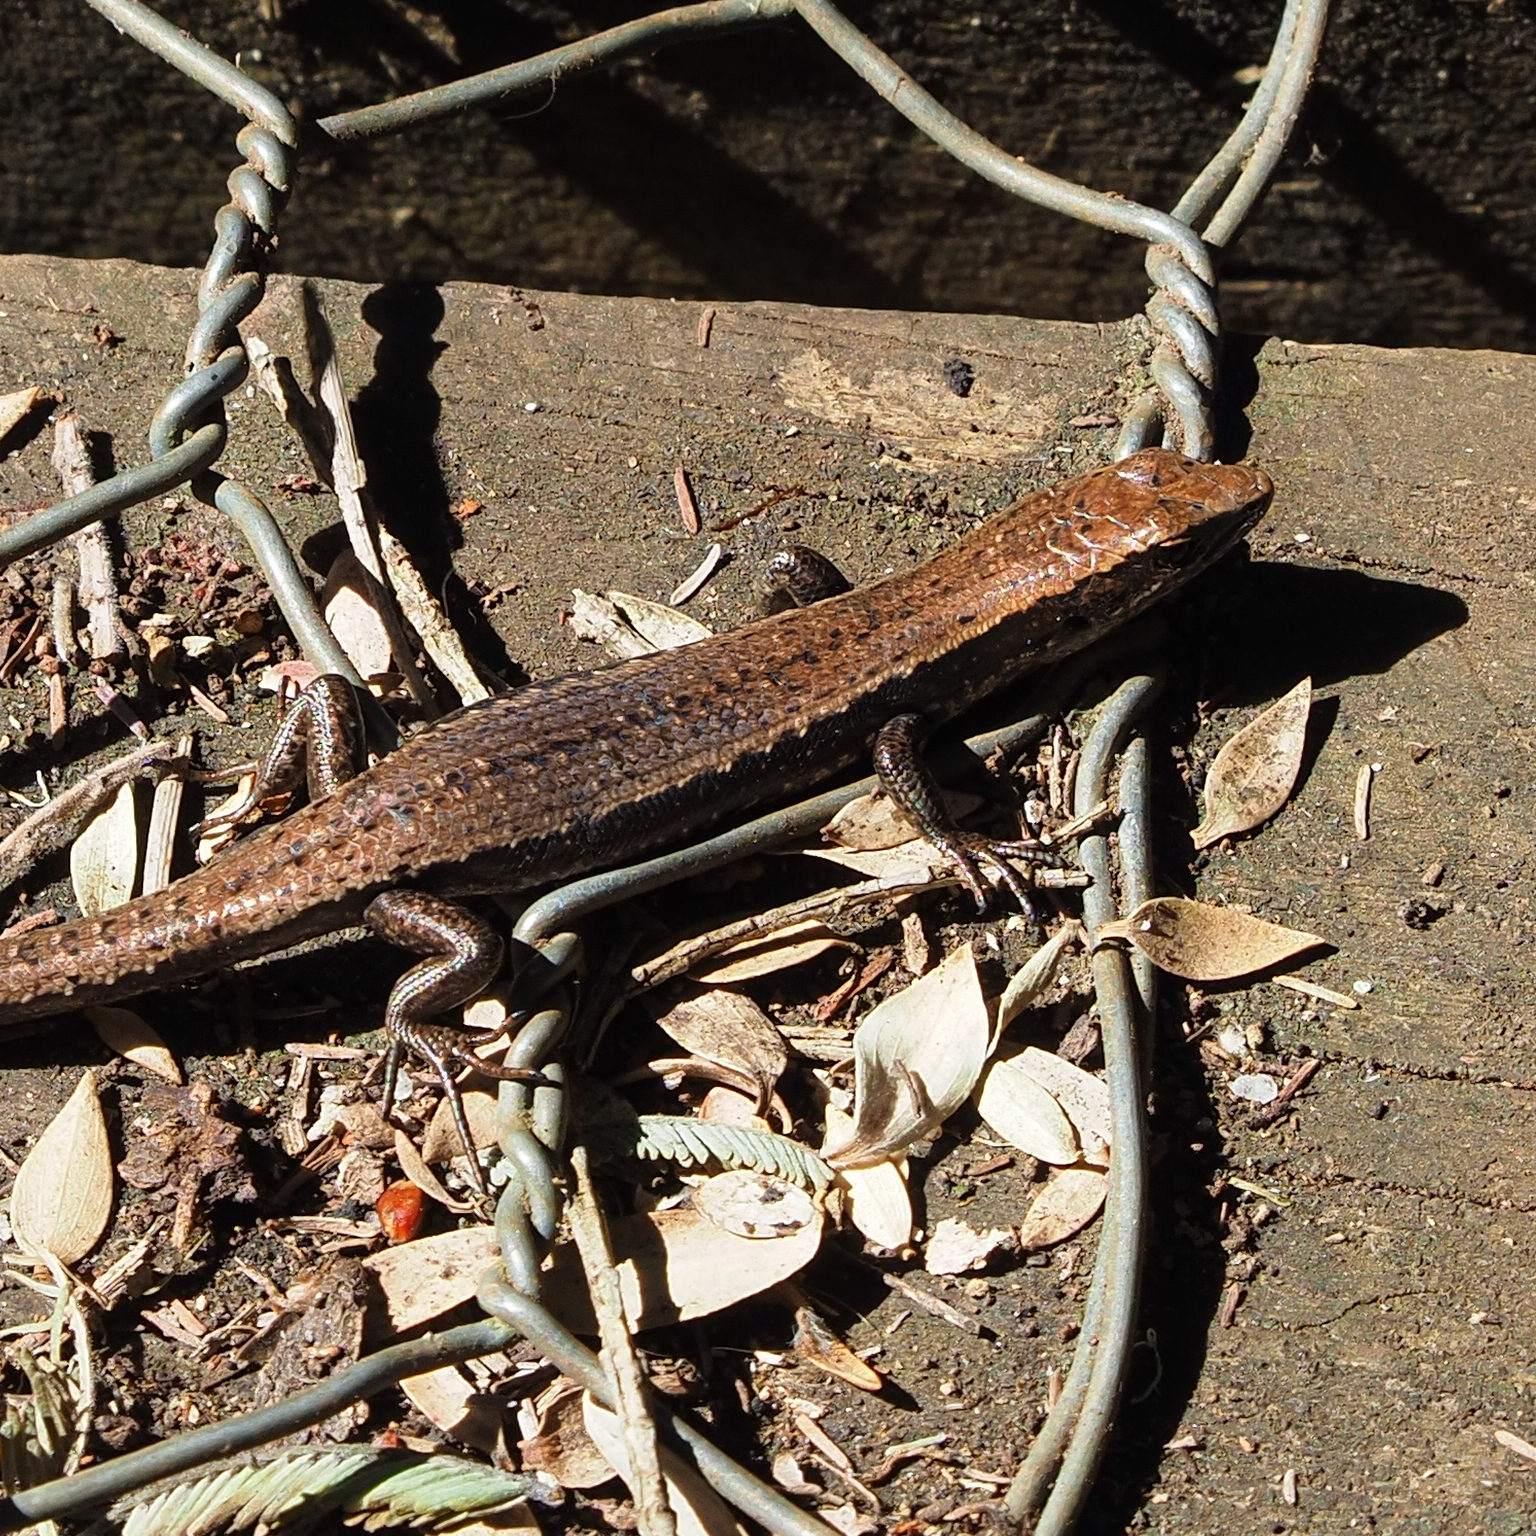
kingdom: Animalia
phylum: Chordata
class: Squamata
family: Scincidae
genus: Carinascincus
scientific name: Carinascincus metallicus
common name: Metallic cool-skink
